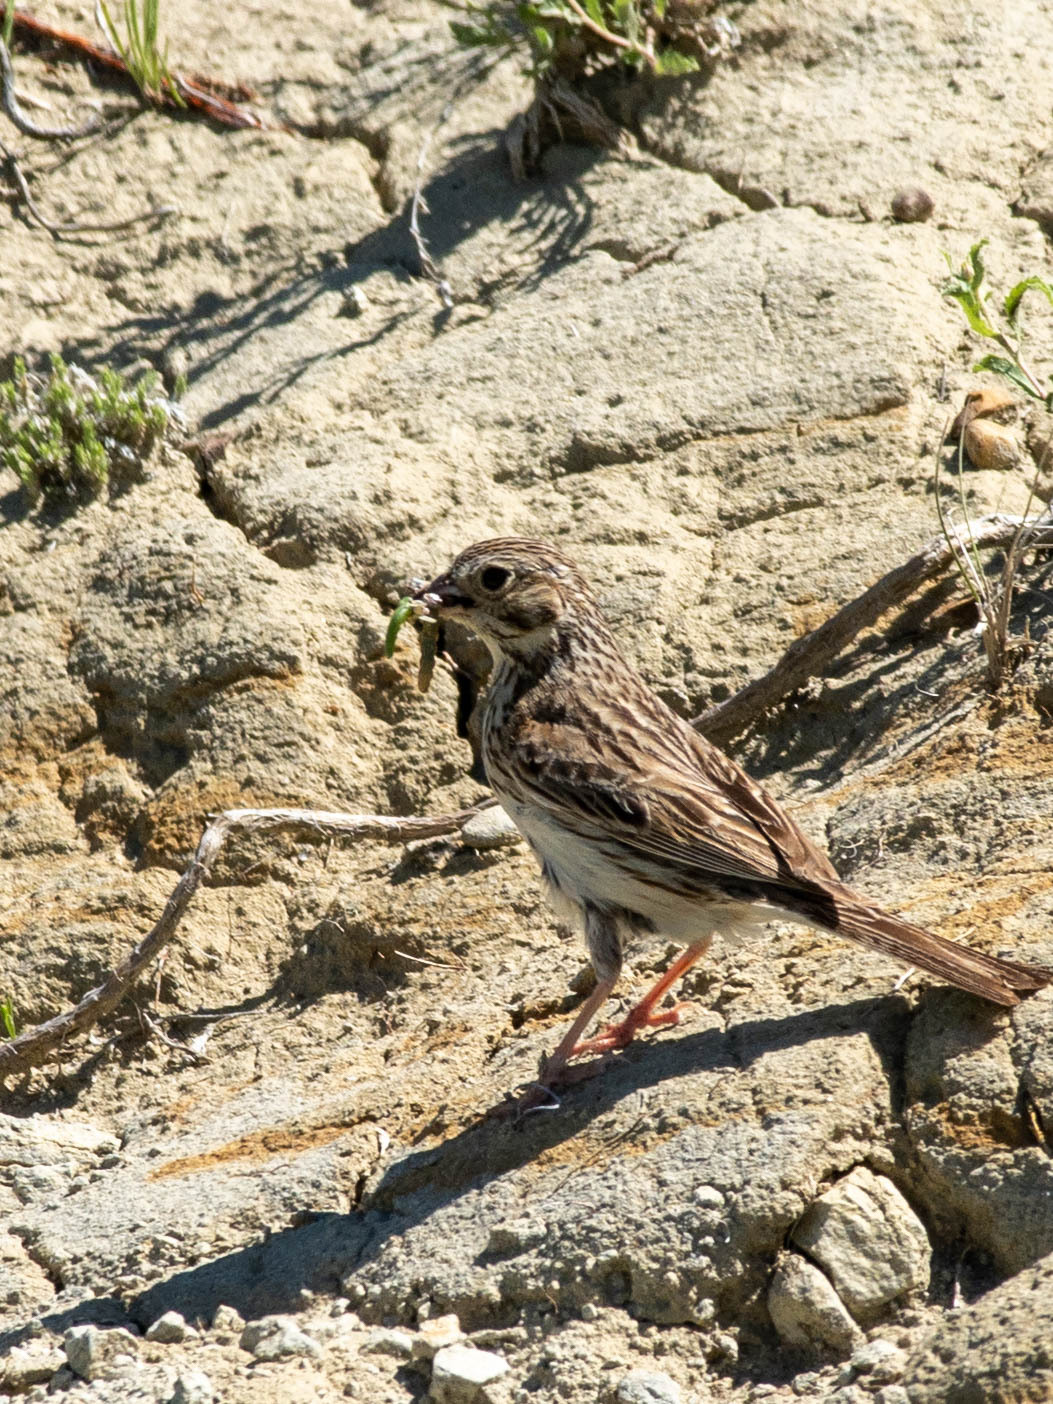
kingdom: Animalia
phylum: Chordata
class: Aves
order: Passeriformes
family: Passerellidae
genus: Pooecetes
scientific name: Pooecetes gramineus
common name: Vesper sparrow
